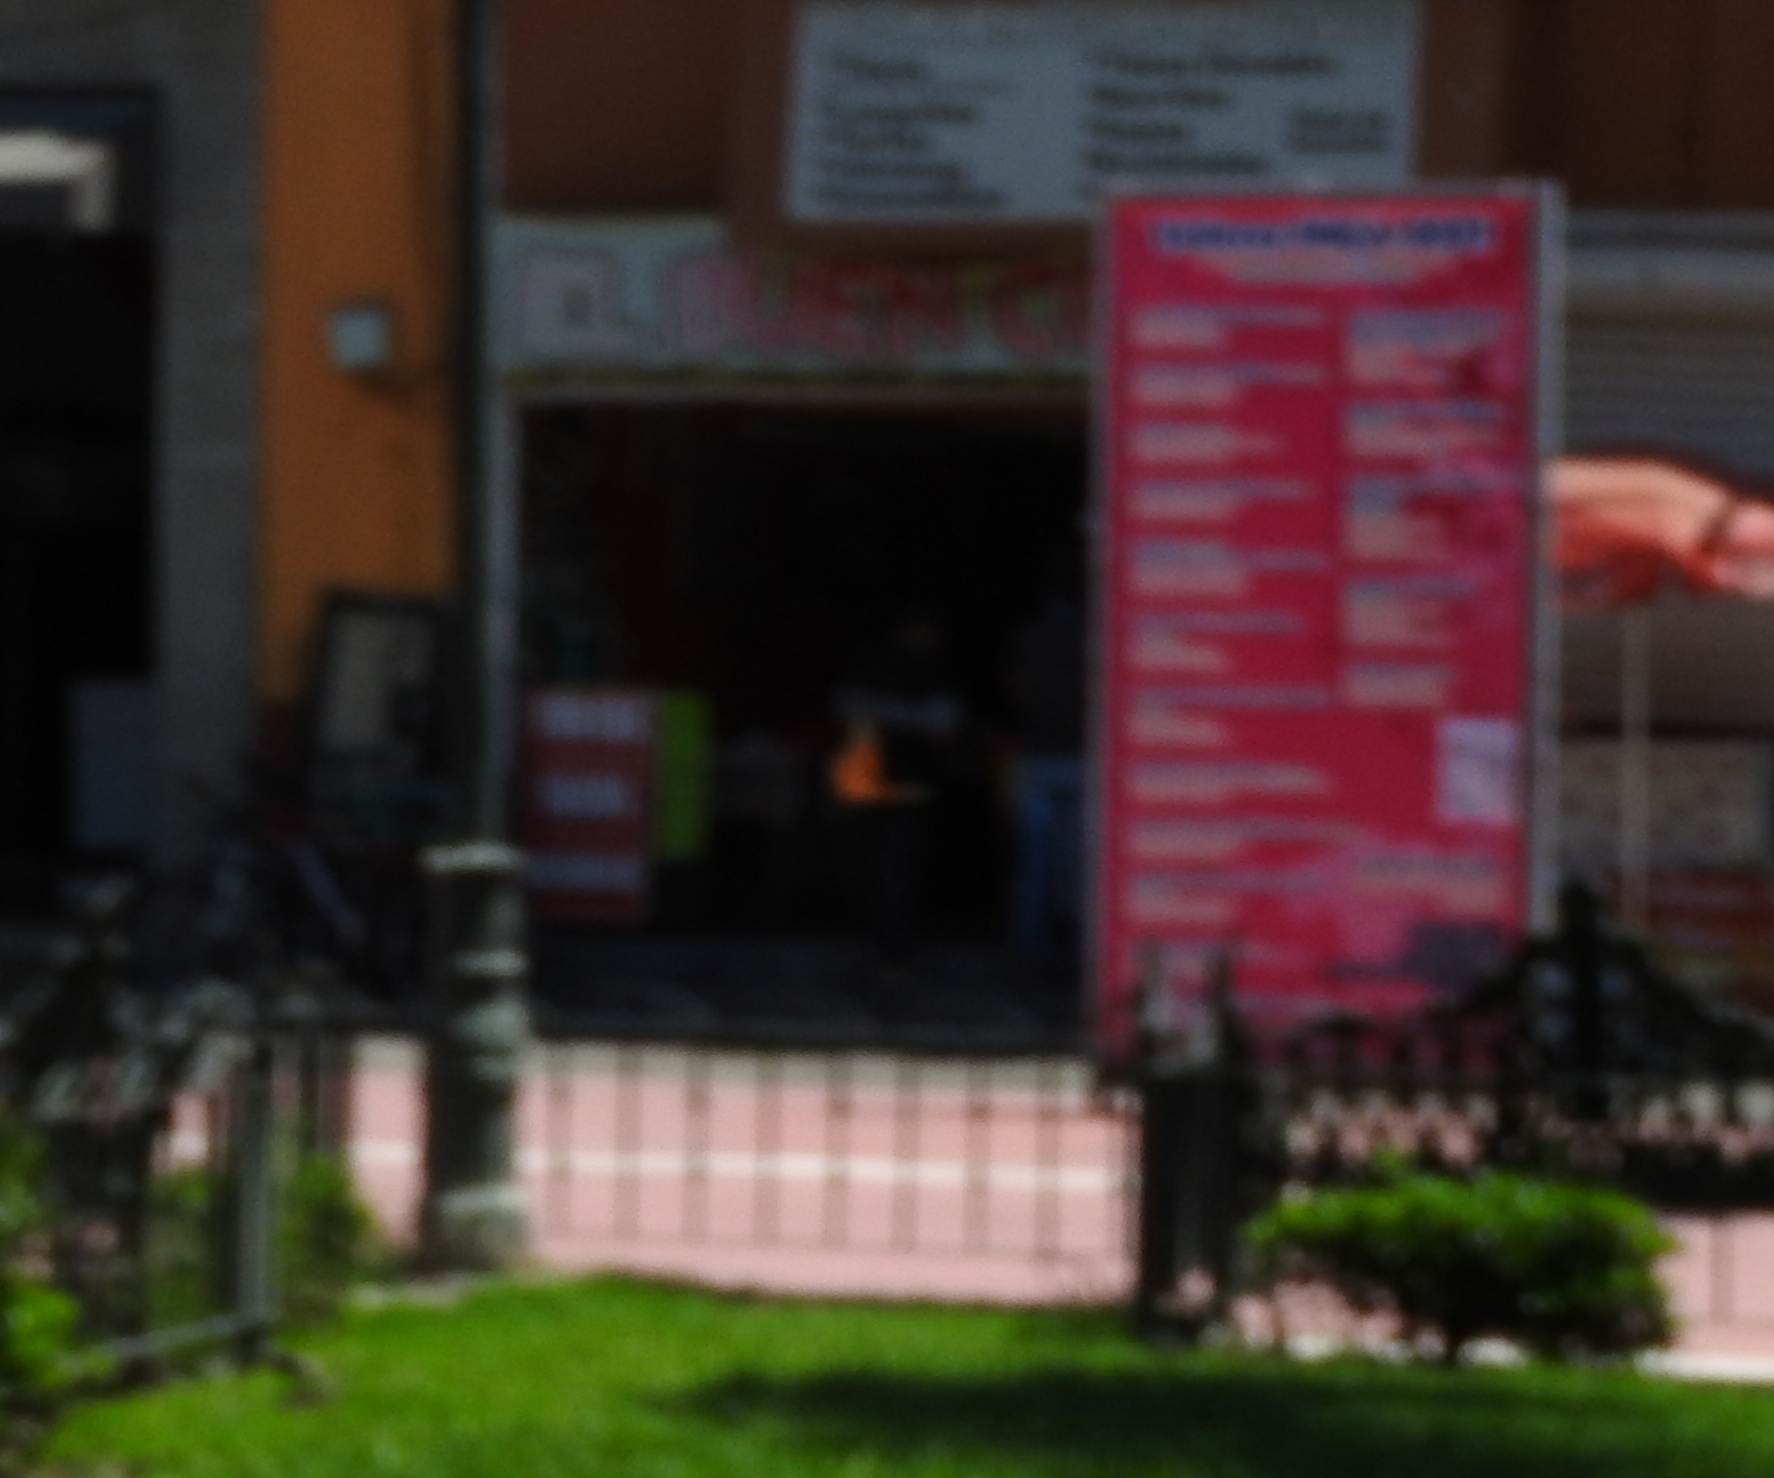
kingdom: Animalia
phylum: Arthropoda
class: Insecta
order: Lepidoptera
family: Nymphalidae
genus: Danaus
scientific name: Danaus plexippus
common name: Monarch
